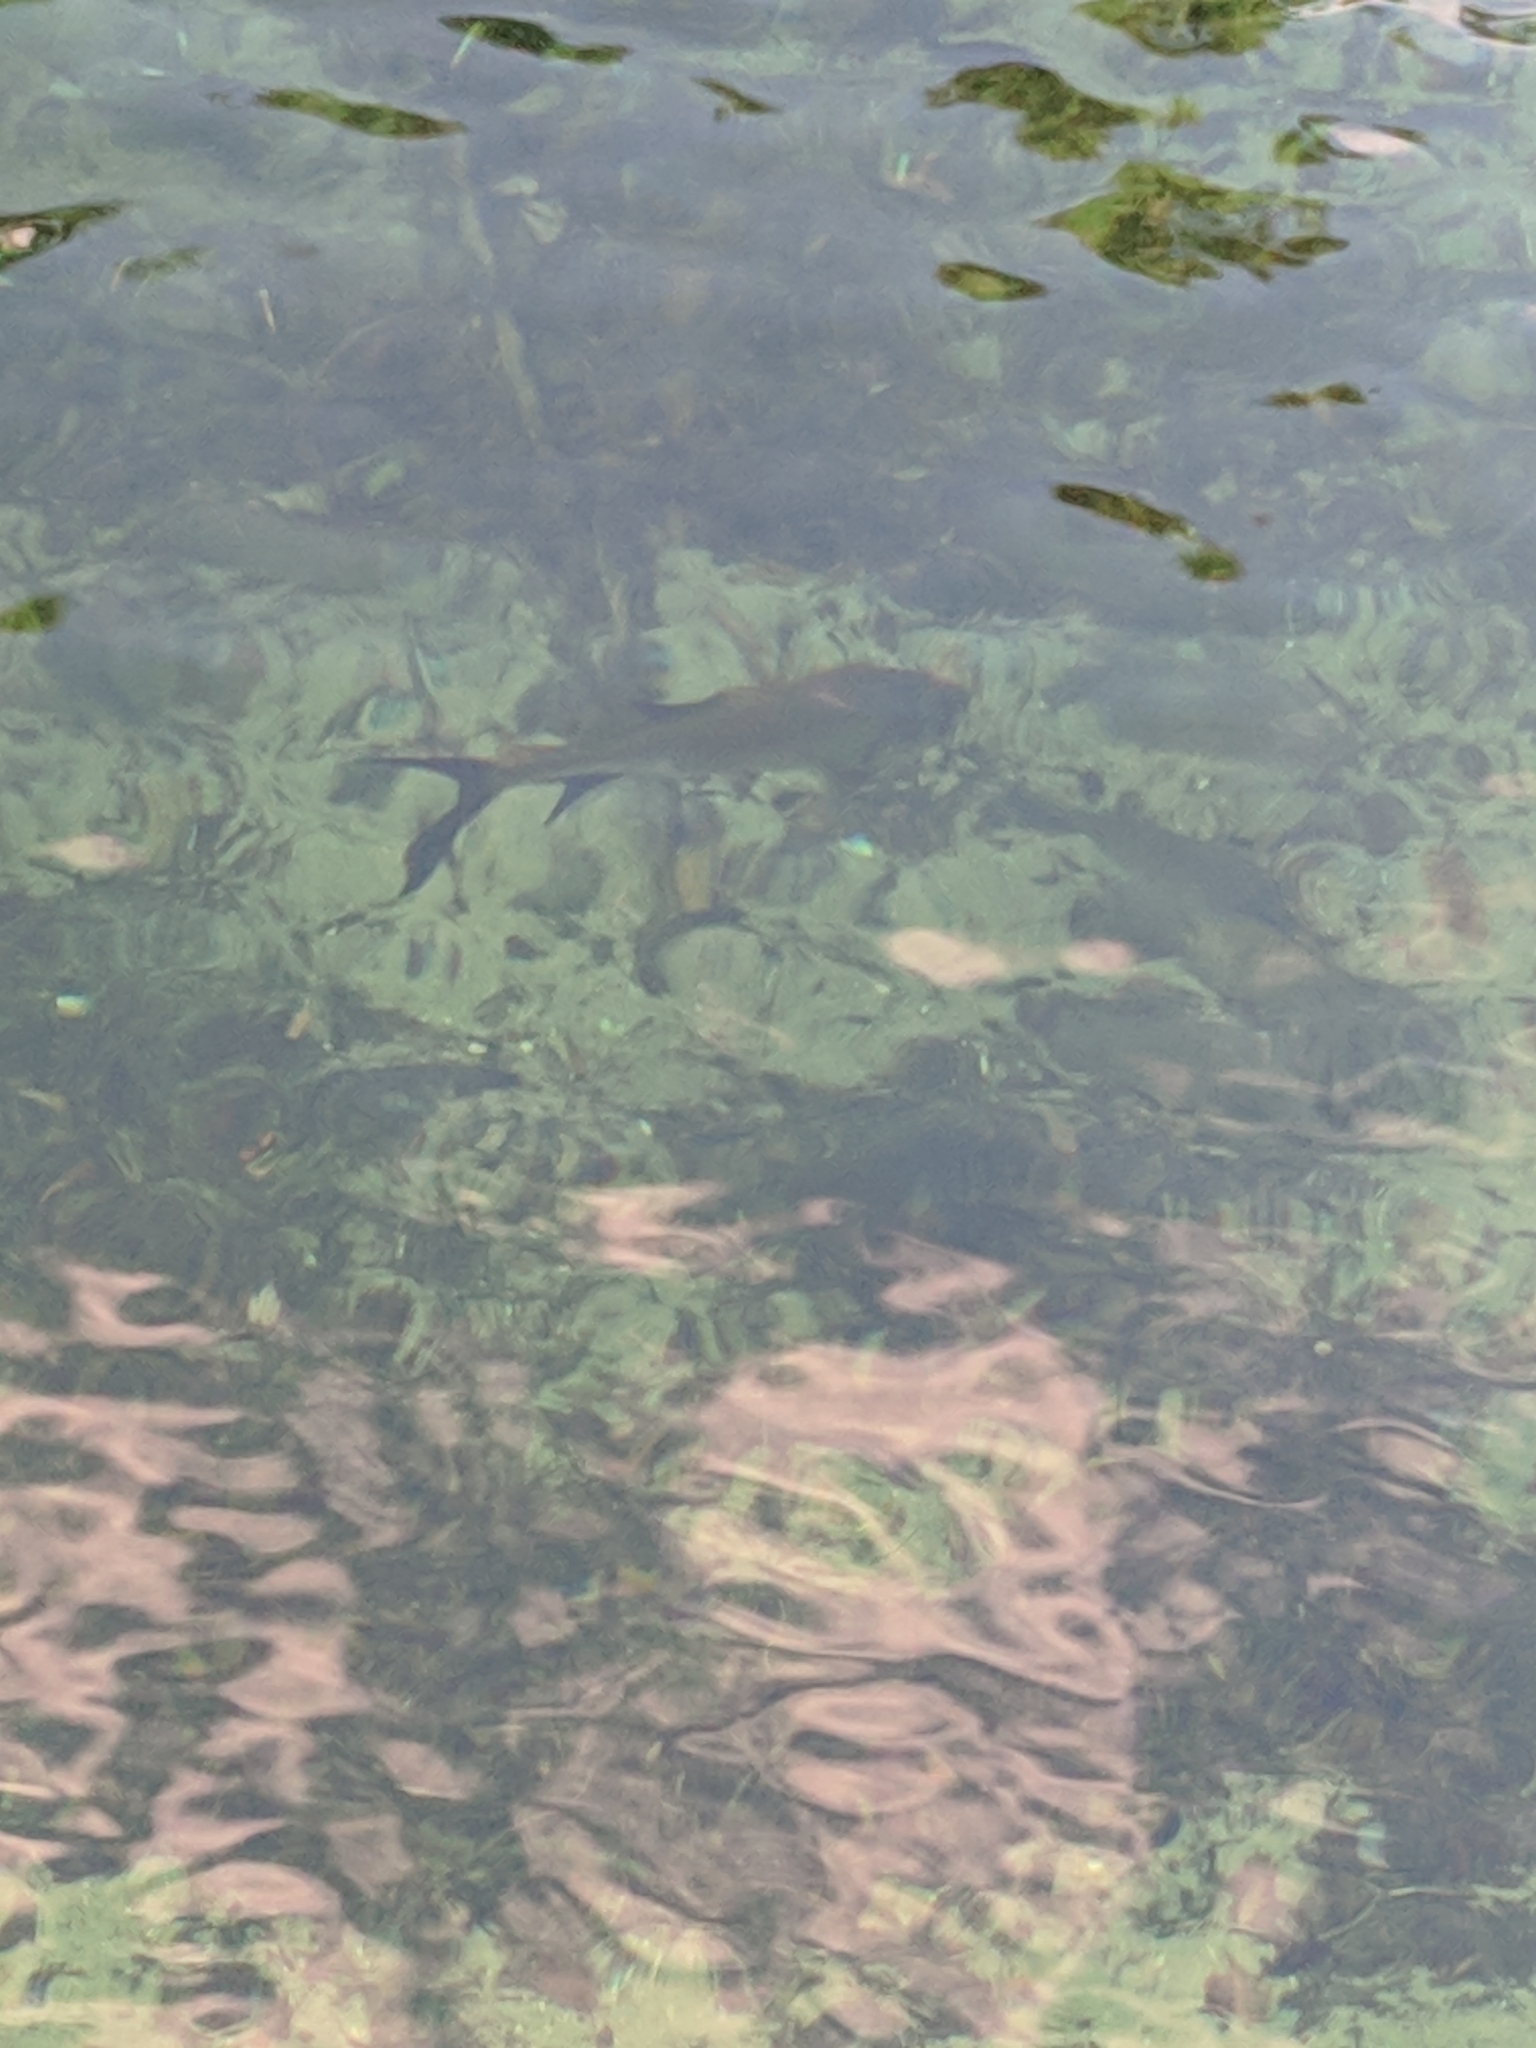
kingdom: Animalia
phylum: Chordata
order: Elopiformes
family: Megalopidae
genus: Megalops
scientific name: Megalops atlanticus
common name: Tarpon
